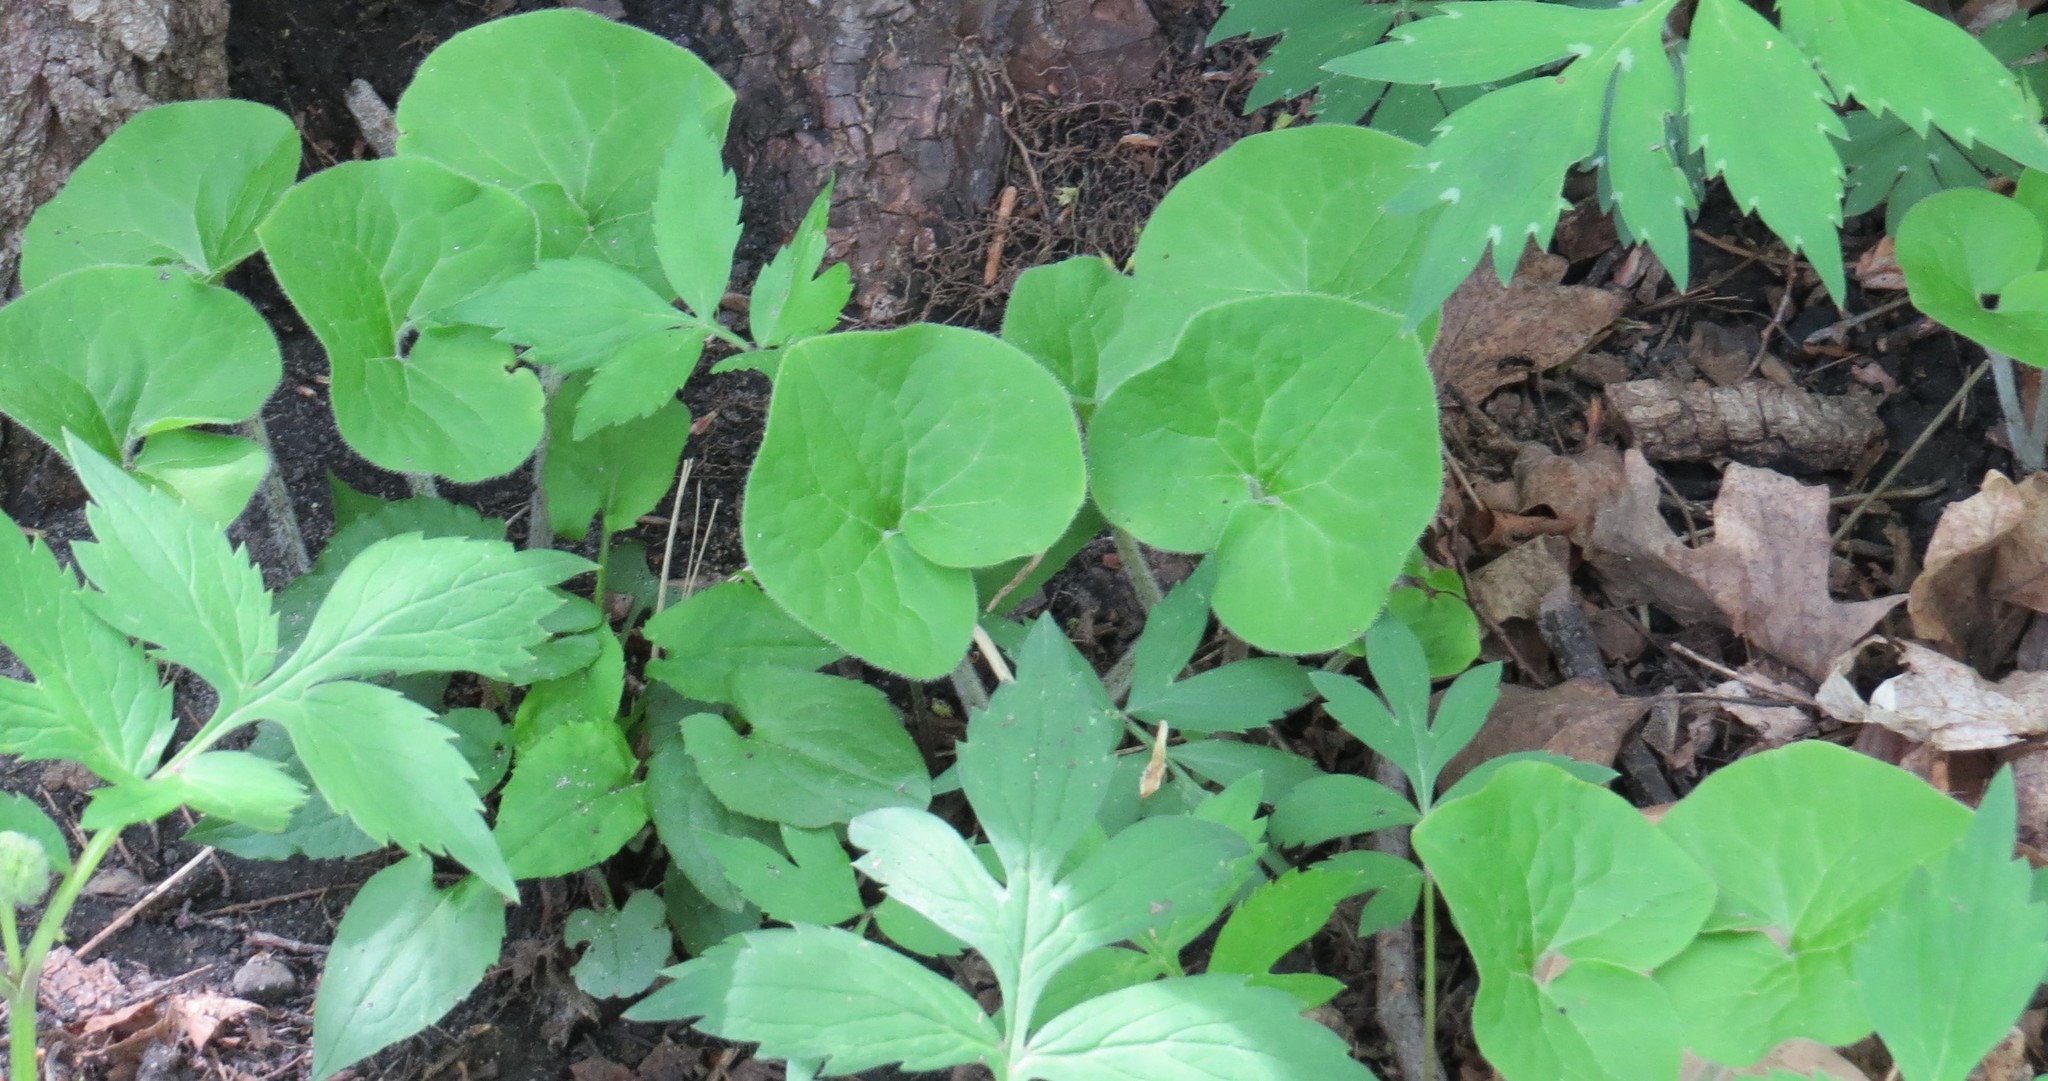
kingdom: Plantae
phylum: Tracheophyta
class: Magnoliopsida
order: Piperales
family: Aristolochiaceae
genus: Asarum
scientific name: Asarum canadense
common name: Wild ginger
